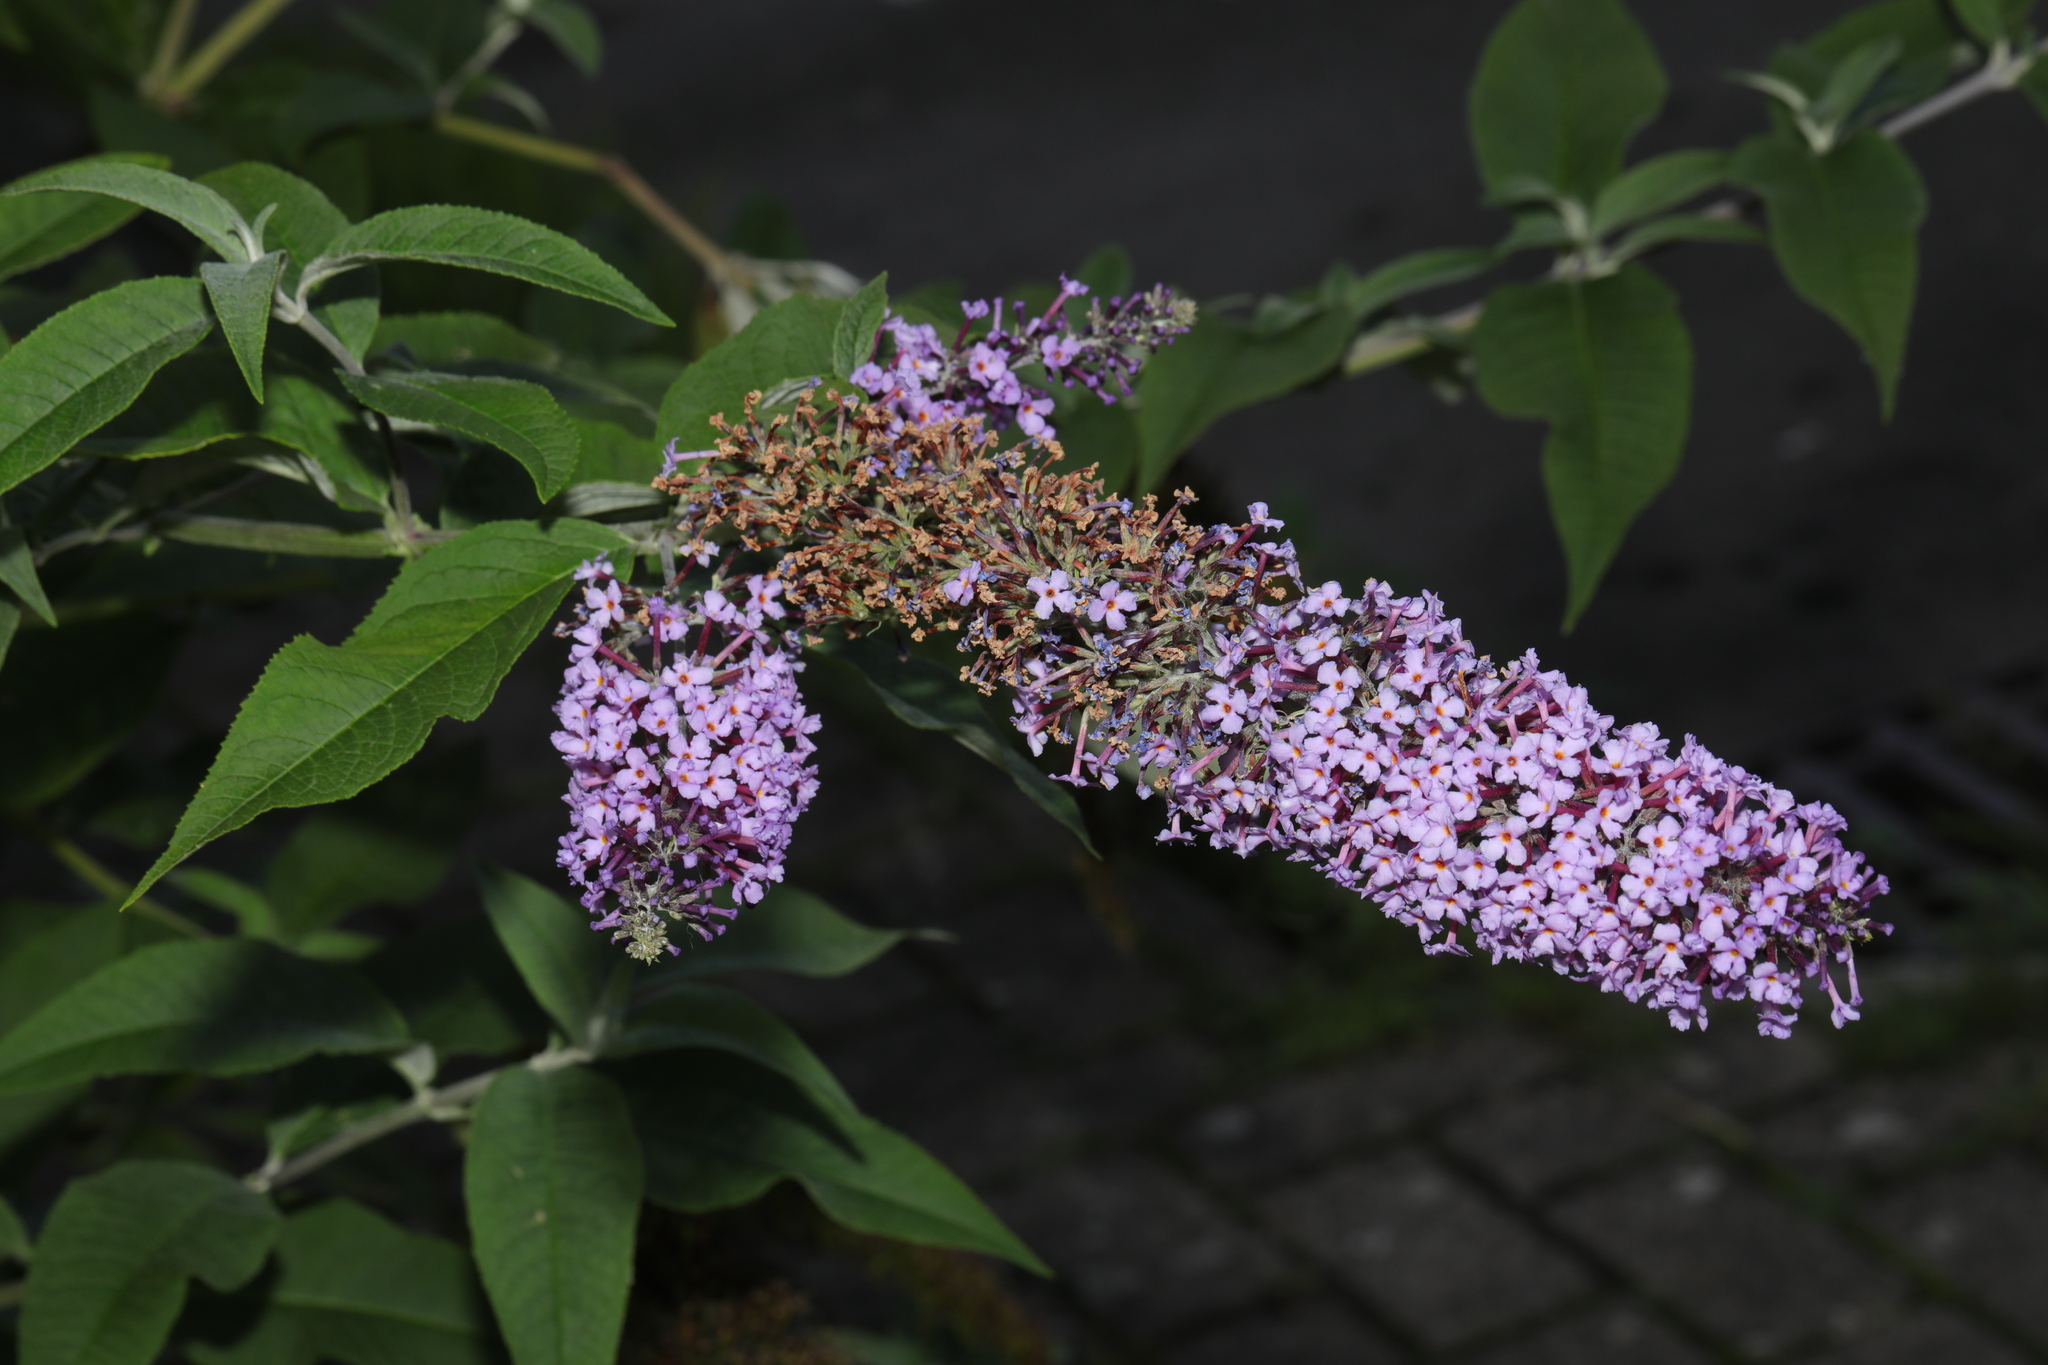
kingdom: Plantae
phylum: Tracheophyta
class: Magnoliopsida
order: Lamiales
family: Scrophulariaceae
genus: Buddleja
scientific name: Buddleja davidii
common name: Butterfly-bush
